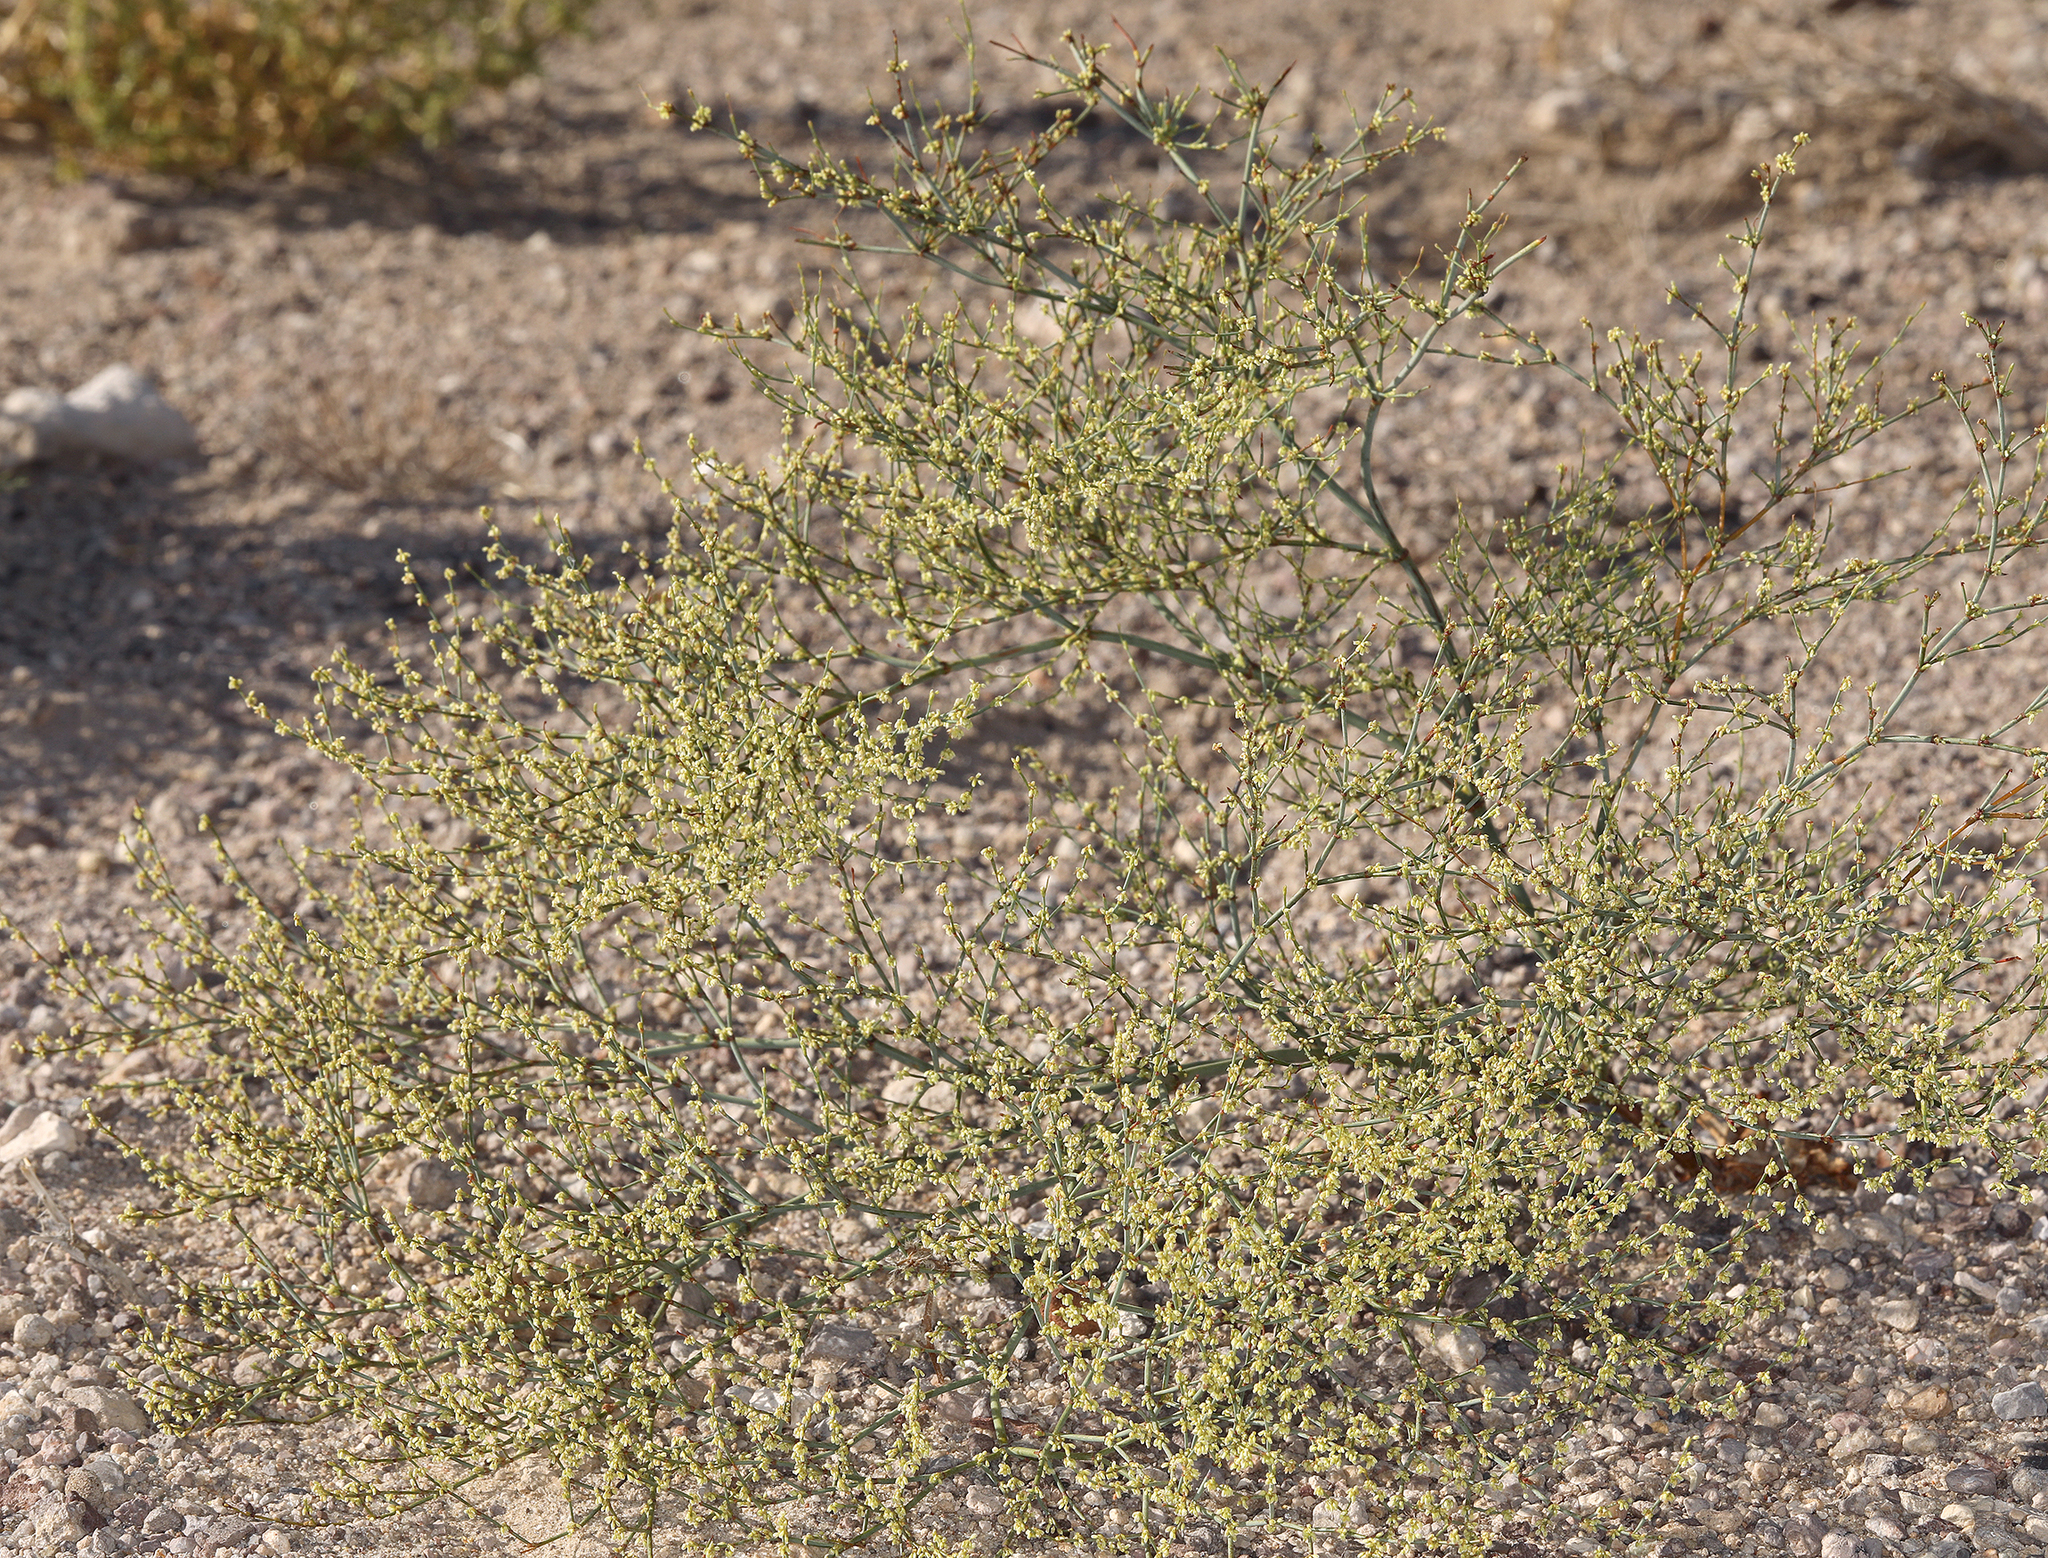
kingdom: Plantae
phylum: Tracheophyta
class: Magnoliopsida
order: Caryophyllales
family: Polygonaceae
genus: Eriogonum
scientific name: Eriogonum brachyanthum
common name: Short-flower wild buckwheat
